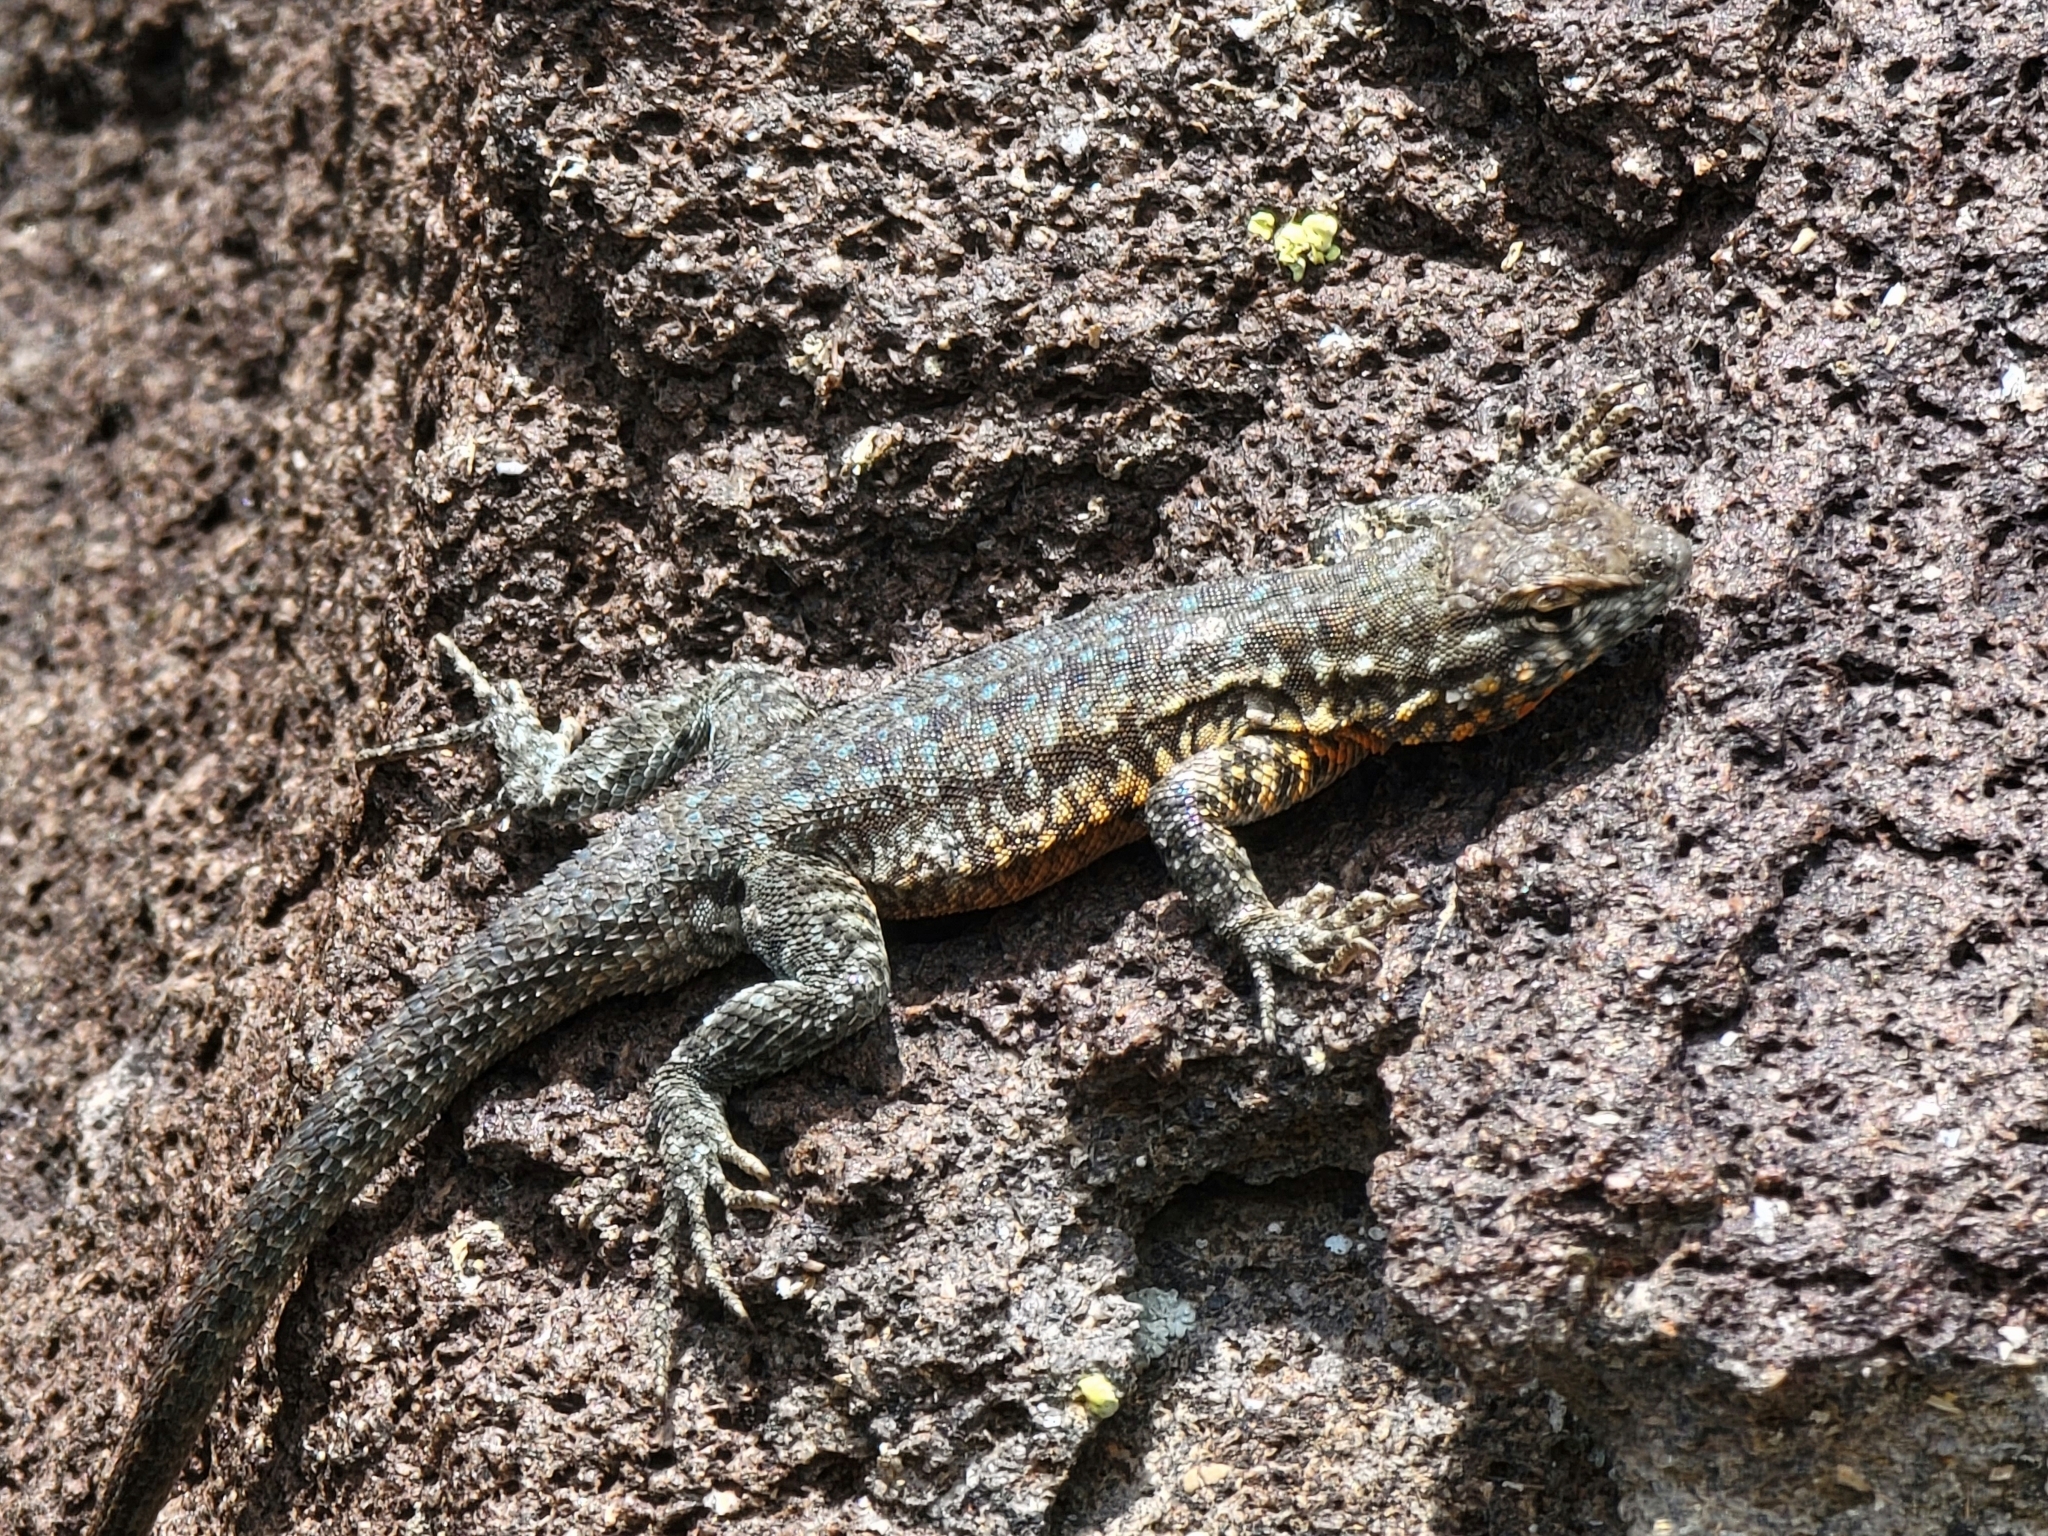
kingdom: Animalia
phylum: Chordata
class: Squamata
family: Phrynosomatidae
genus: Uta
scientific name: Uta stansburiana
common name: Side-blotched lizard
